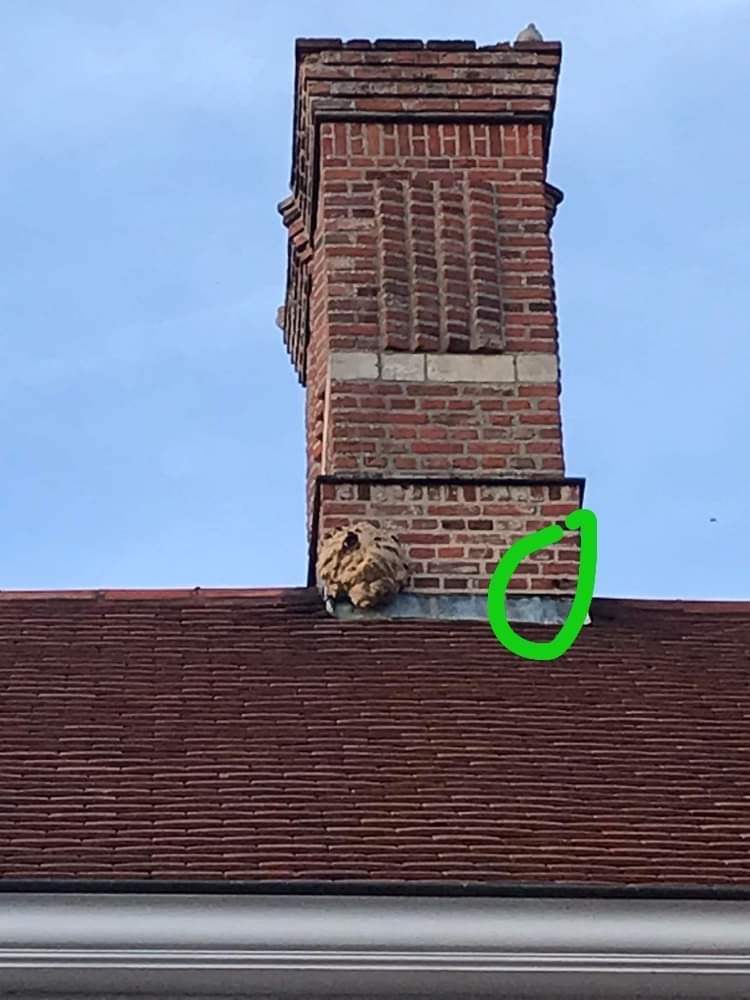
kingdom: Animalia
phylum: Arthropoda
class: Insecta
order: Hymenoptera
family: Vespidae
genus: Vespa
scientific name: Vespa velutina
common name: Asian hornet
